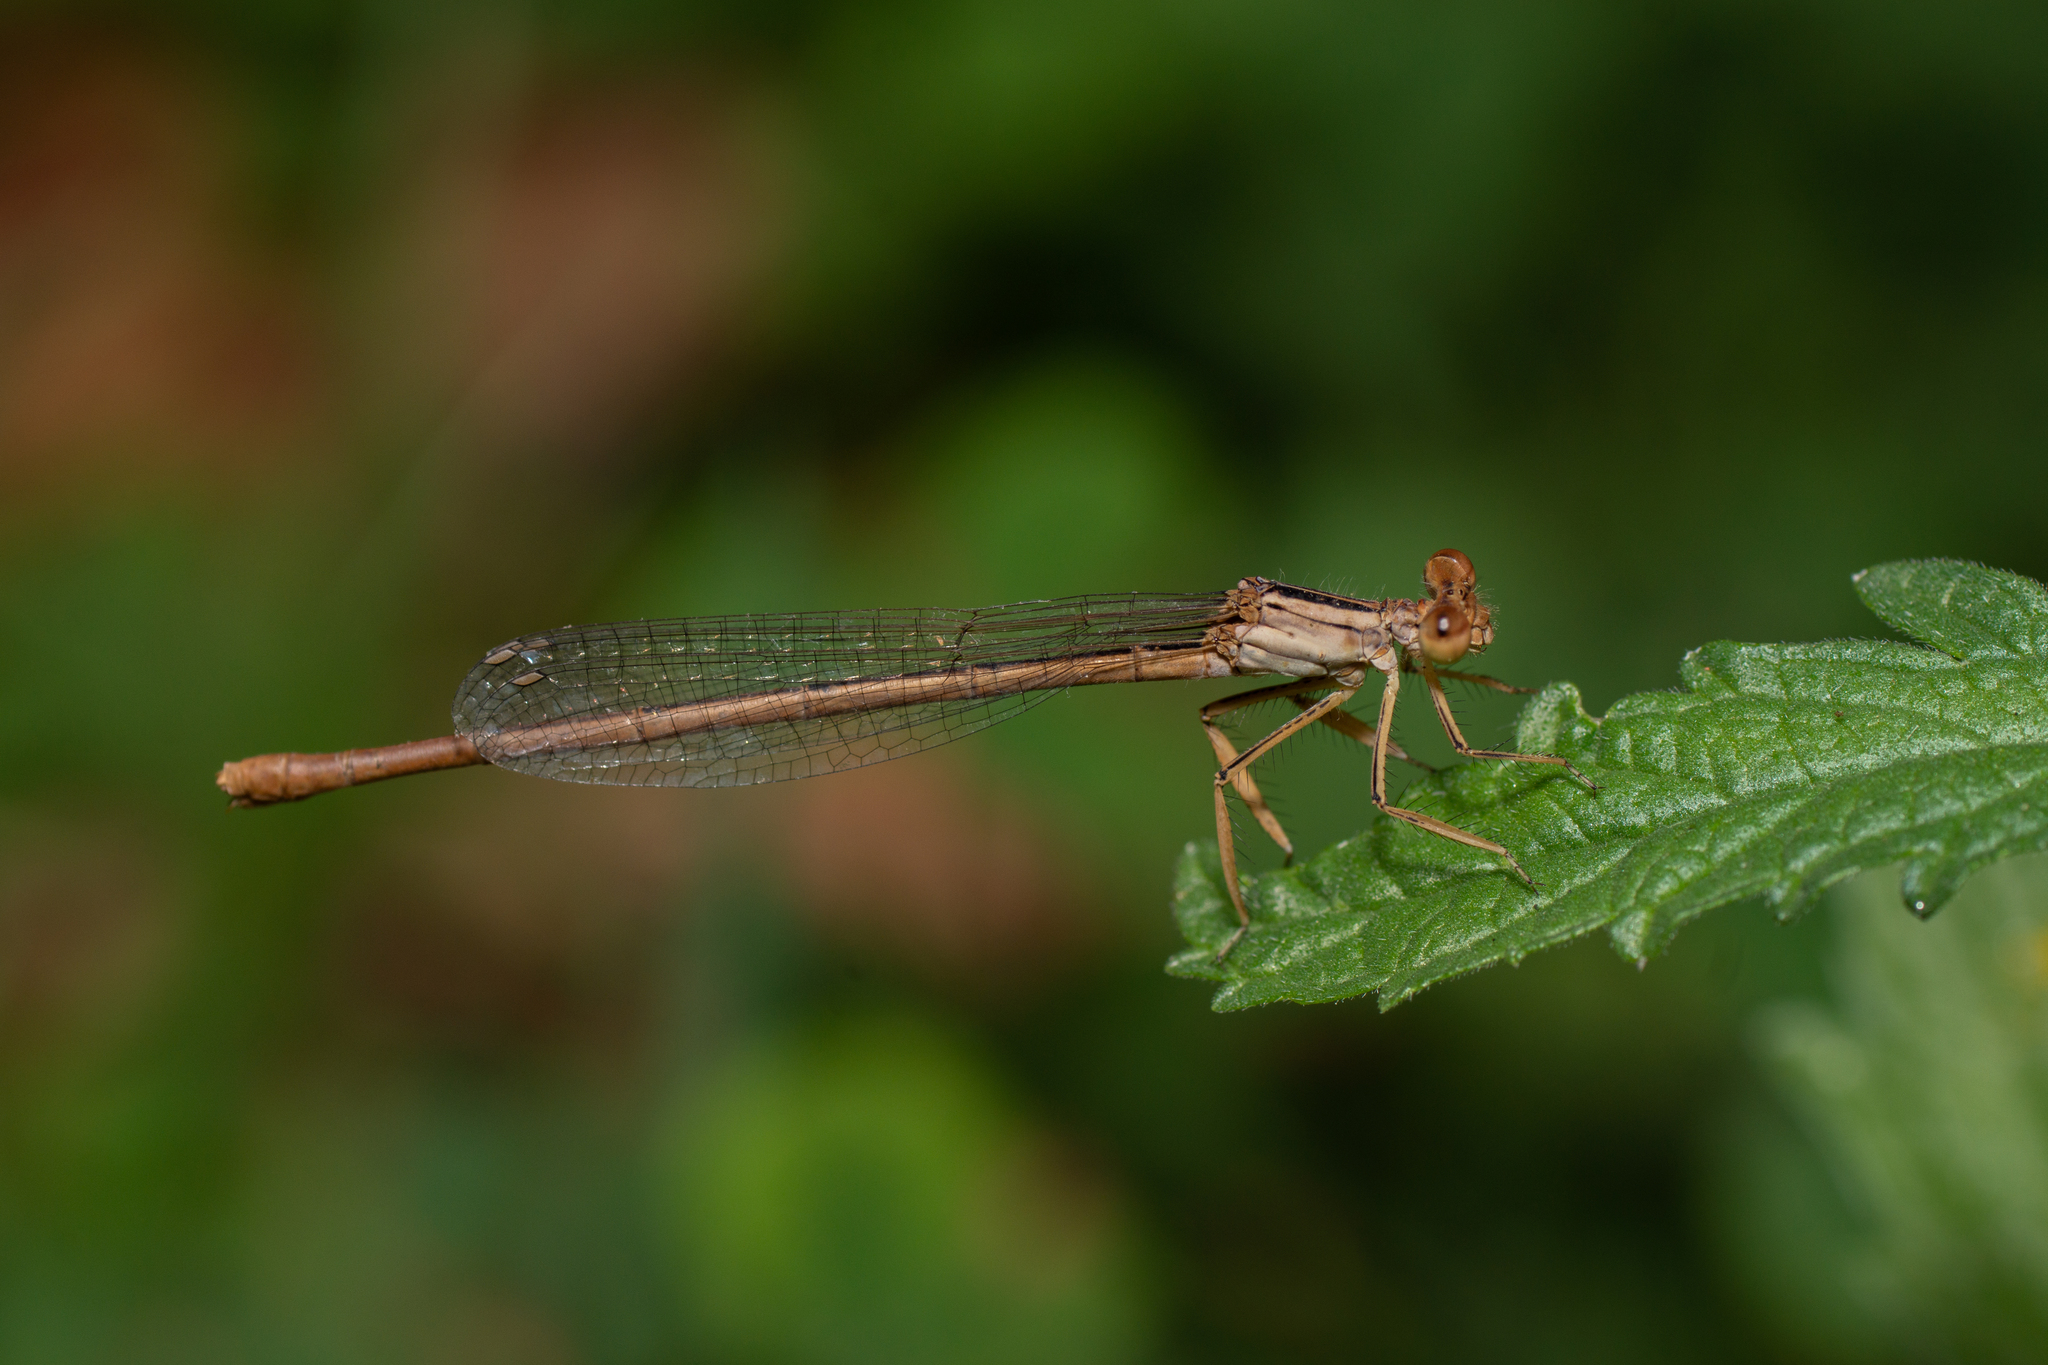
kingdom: Animalia
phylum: Arthropoda
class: Insecta
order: Odonata
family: Platycnemididae
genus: Platycnemis
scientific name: Platycnemis latipes
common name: White featherleg
